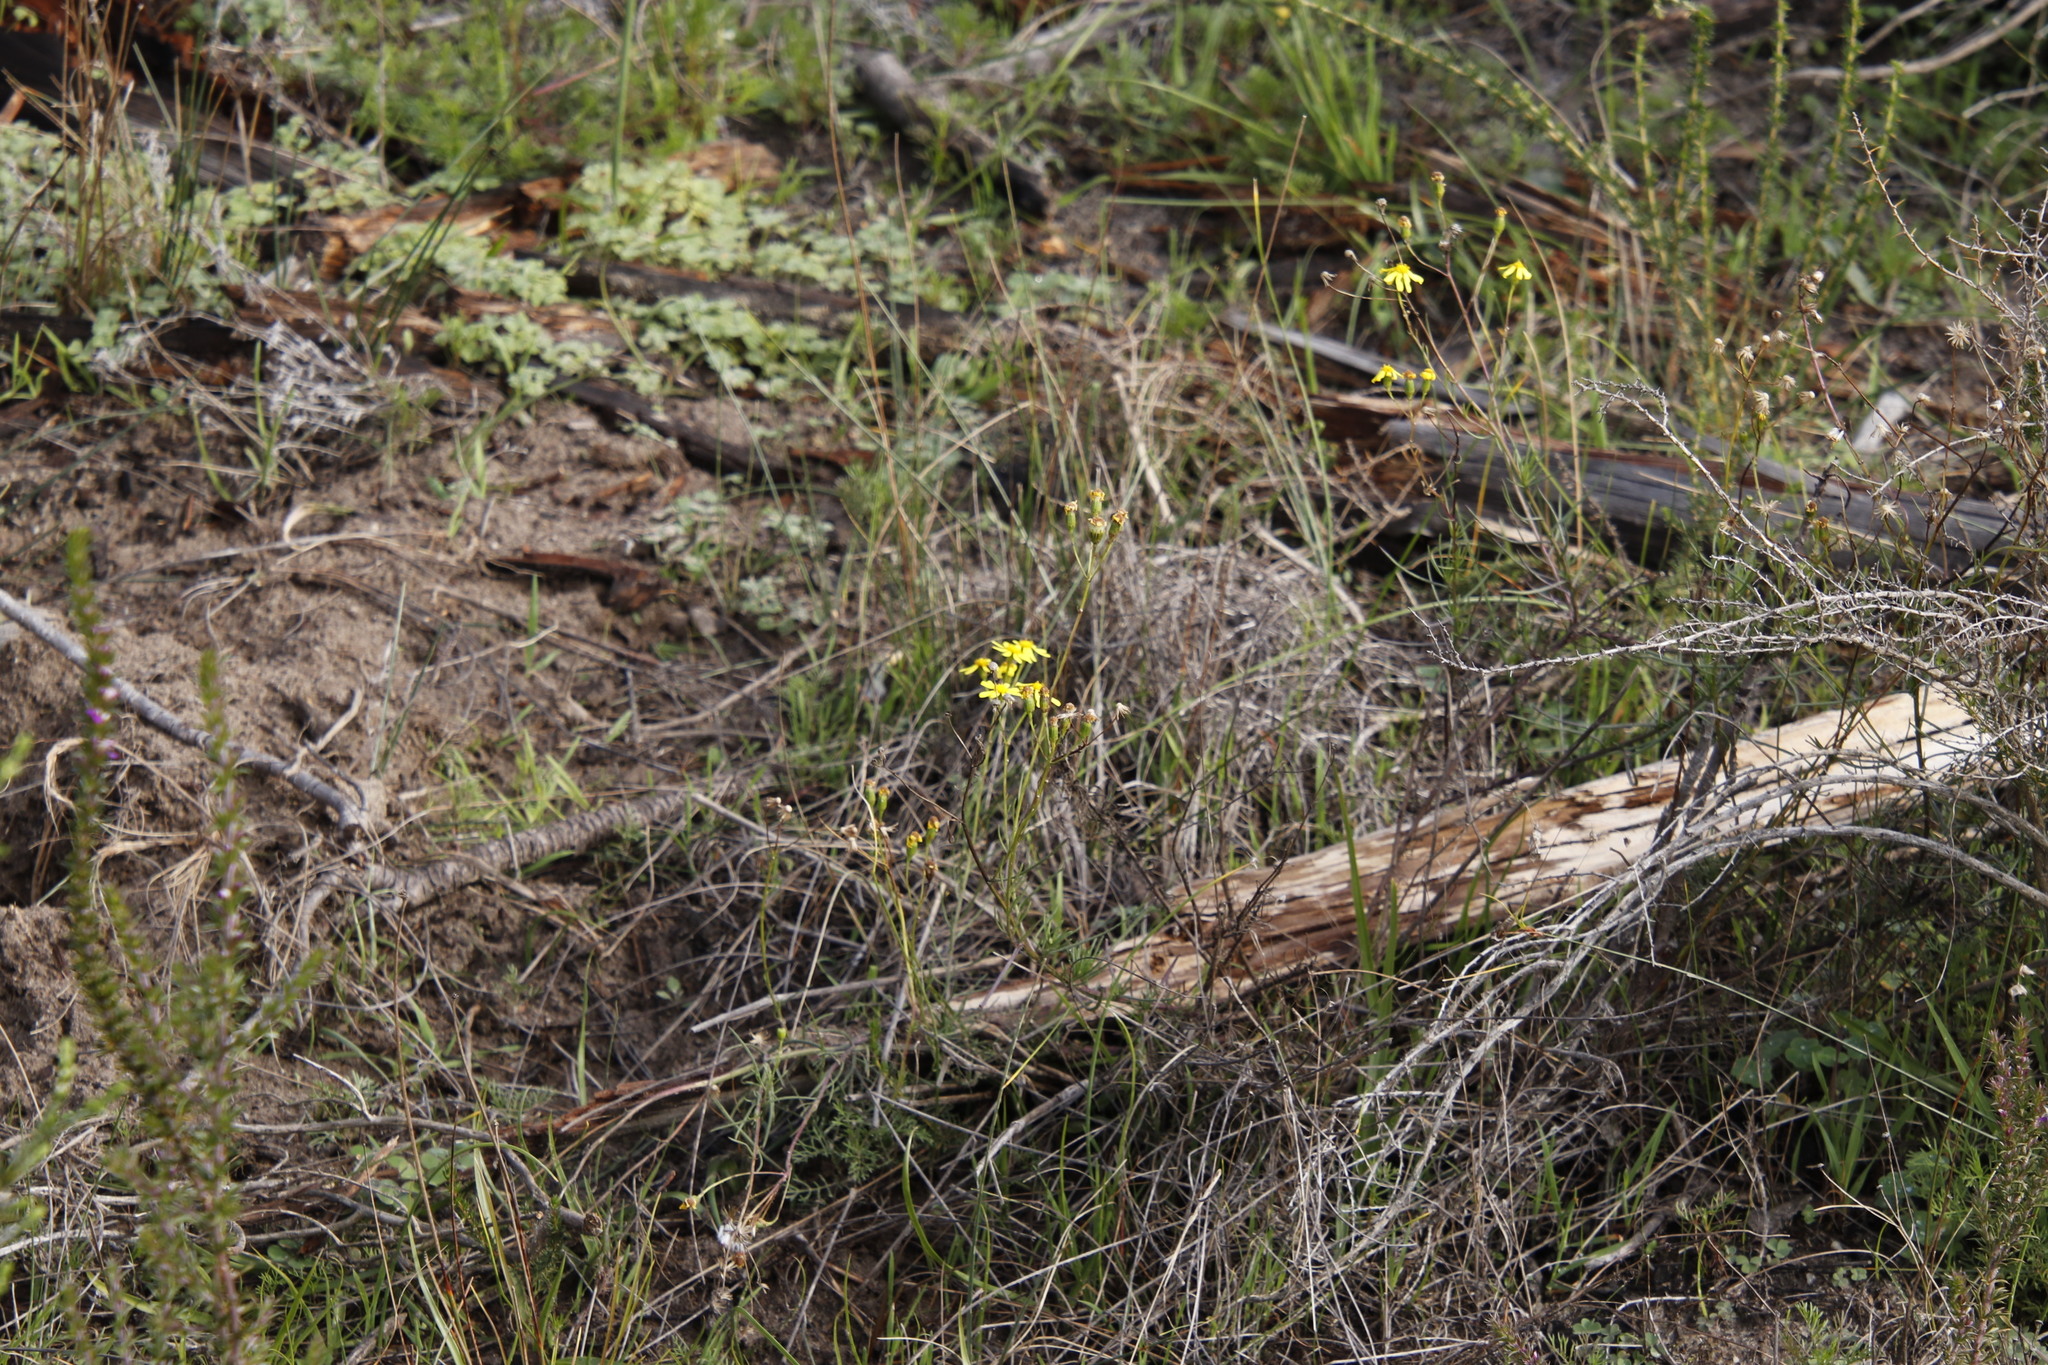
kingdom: Plantae
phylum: Tracheophyta
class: Magnoliopsida
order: Asterales
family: Asteraceae
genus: Senecio
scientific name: Senecio burchellii
